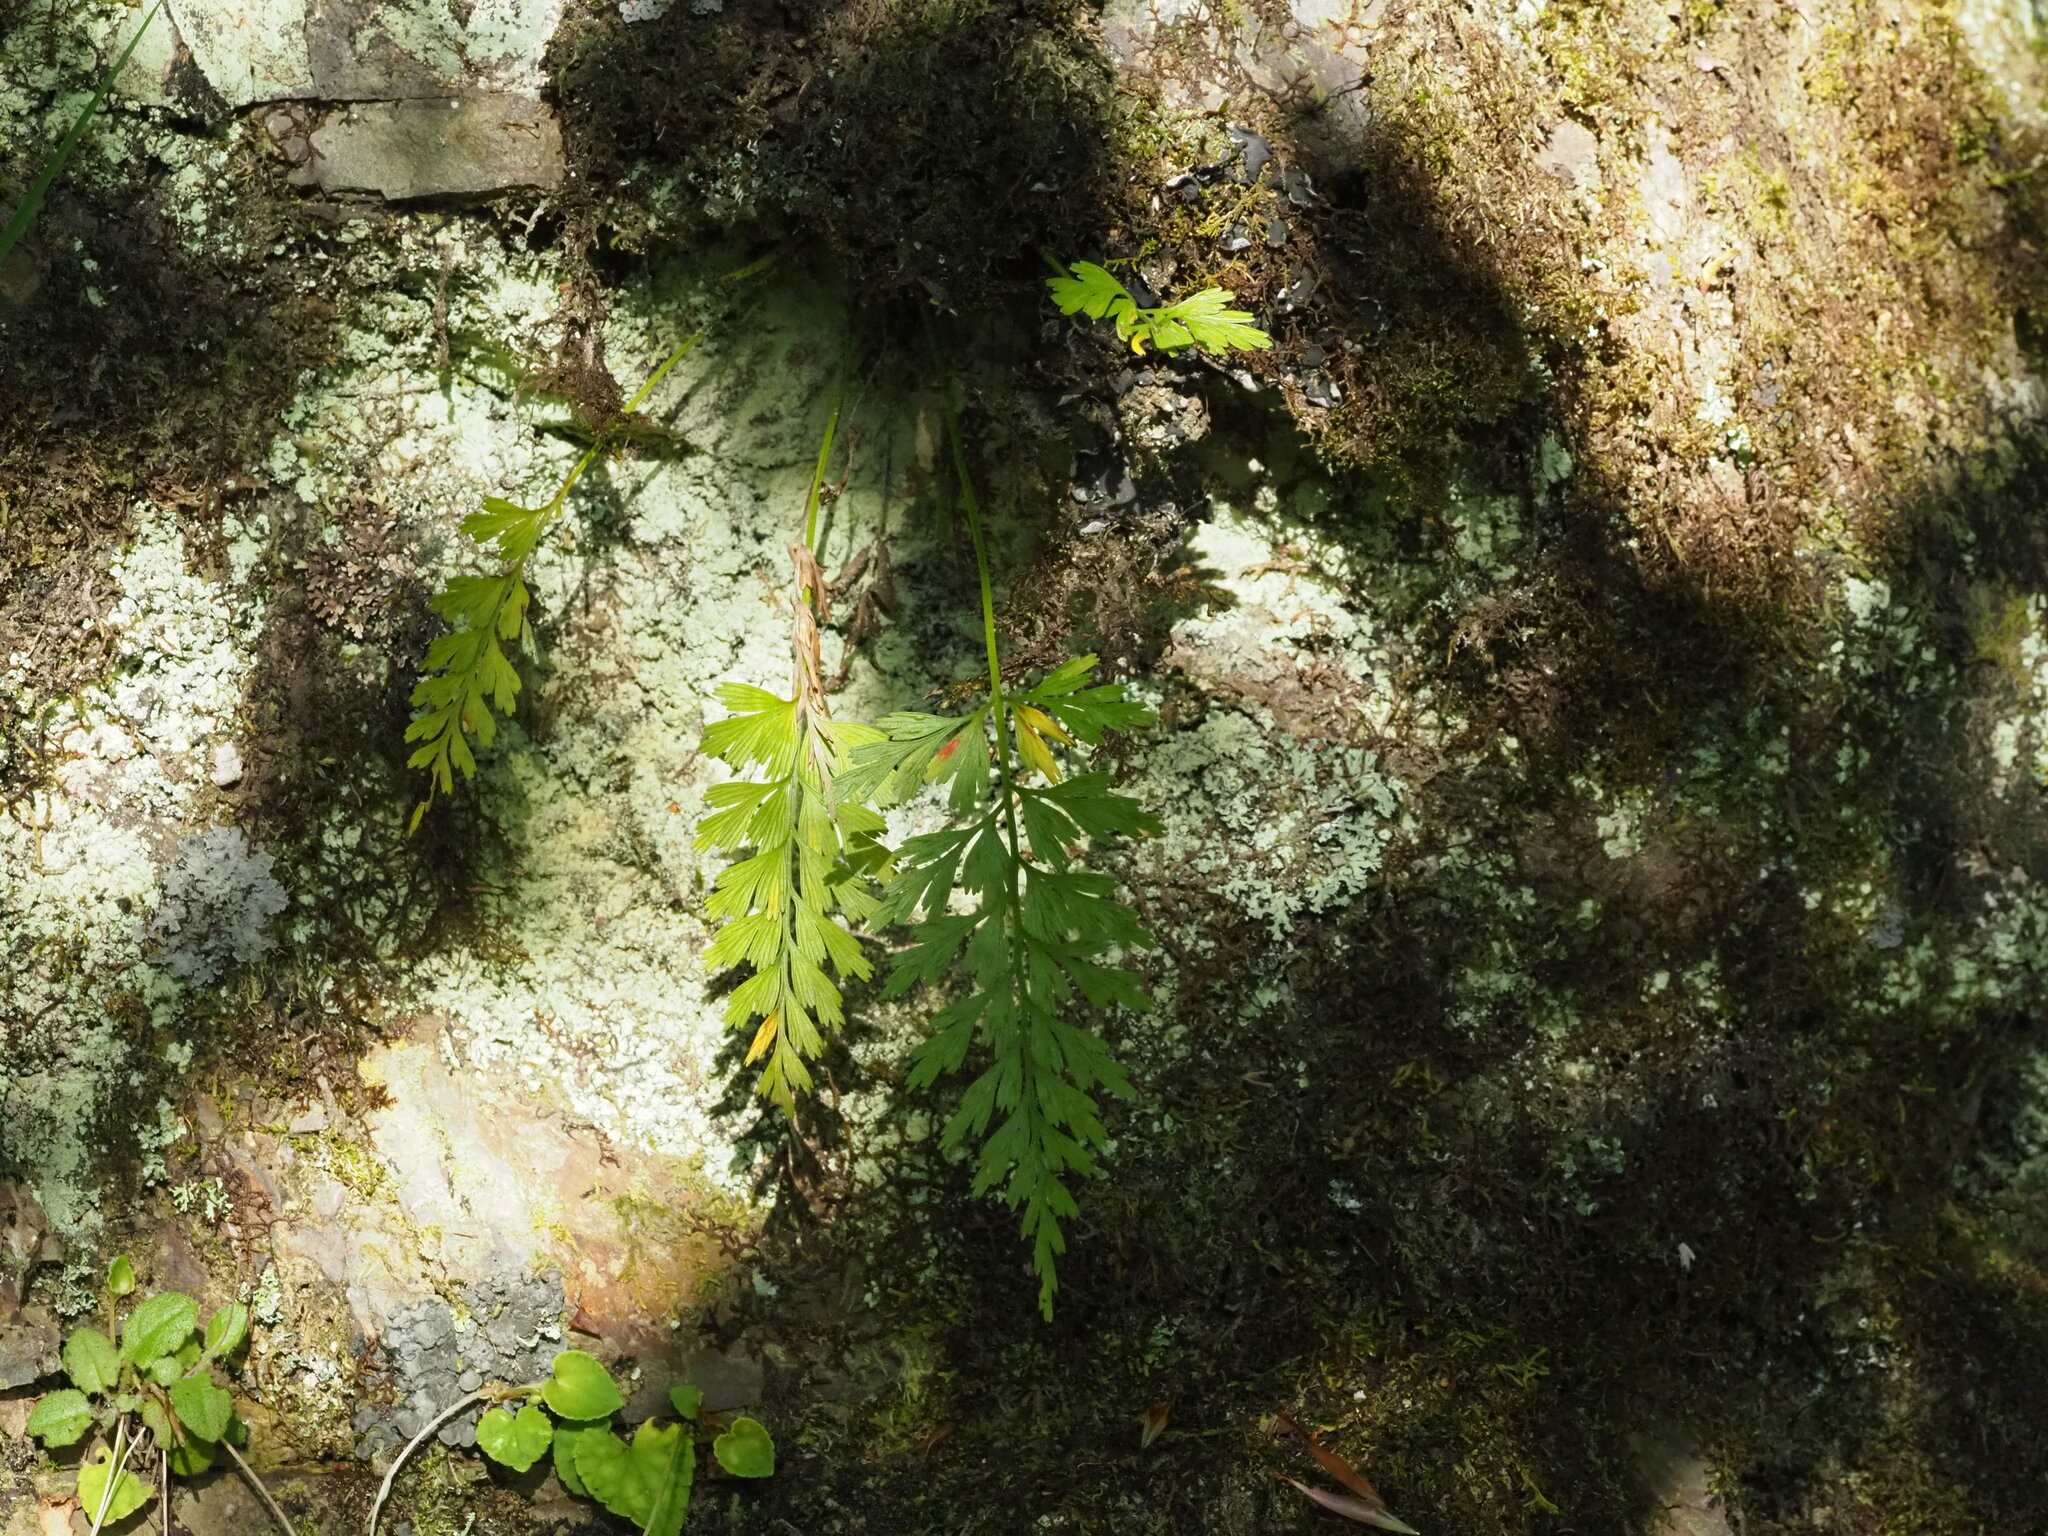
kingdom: Plantae
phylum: Tracheophyta
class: Polypodiopsida
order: Polypodiales
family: Aspleniaceae
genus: Asplenium
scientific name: Asplenium wilfordii
